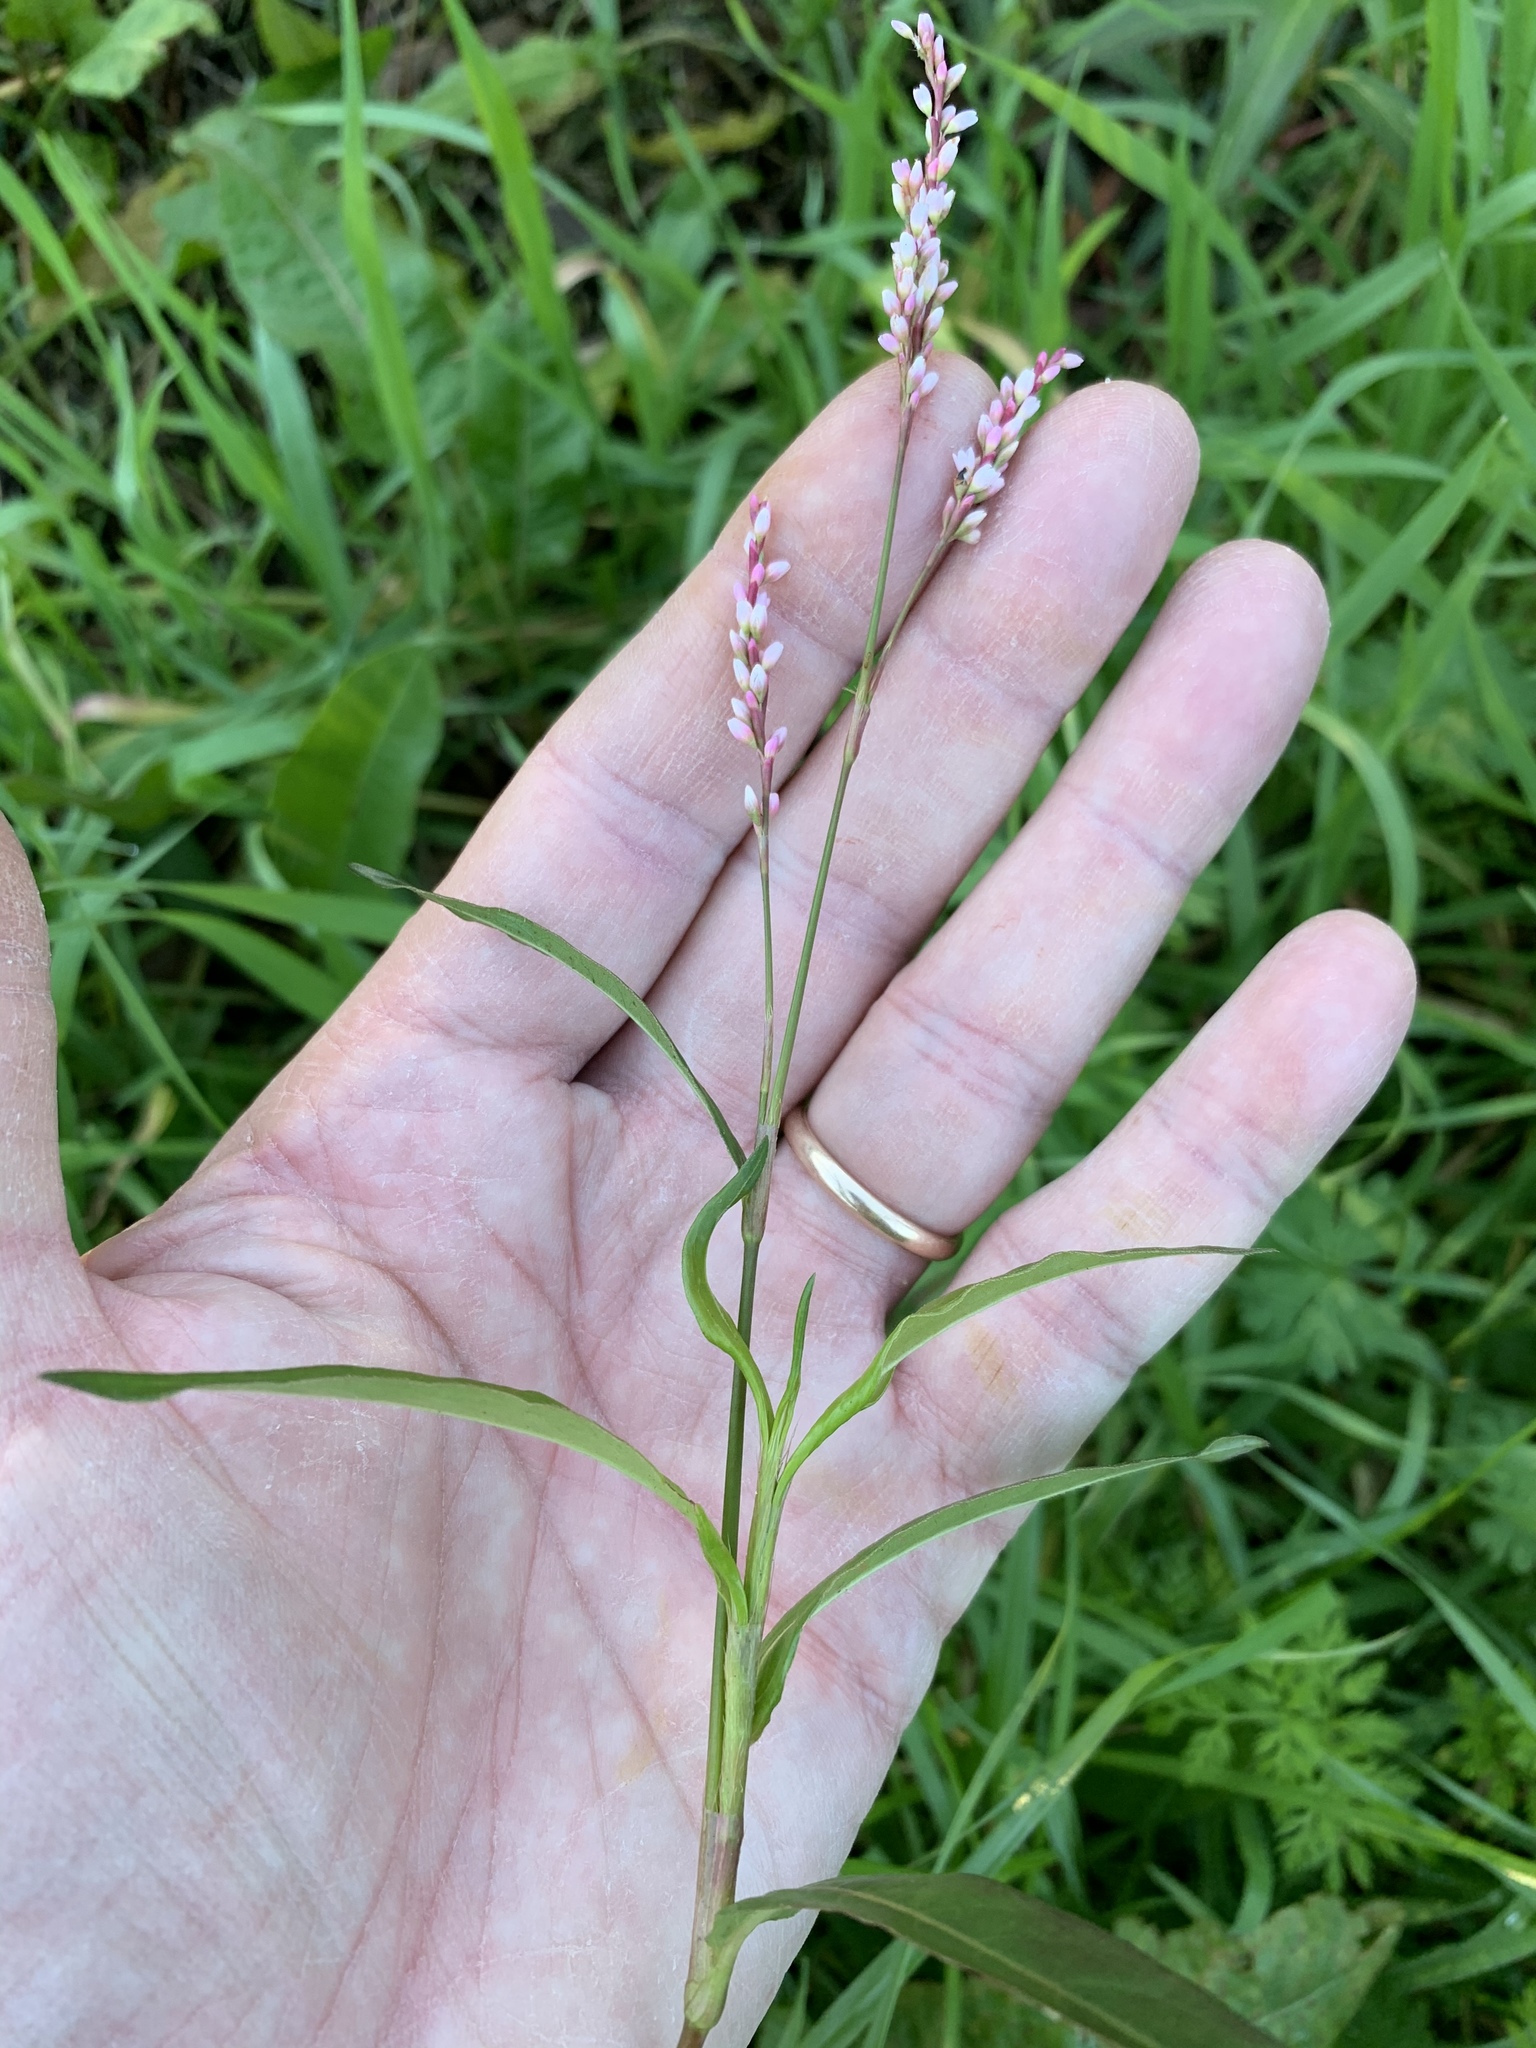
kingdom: Plantae
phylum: Tracheophyta
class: Magnoliopsida
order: Caryophyllales
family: Polygonaceae
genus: Persicaria
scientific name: Persicaria decipiens
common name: Willow-weed
